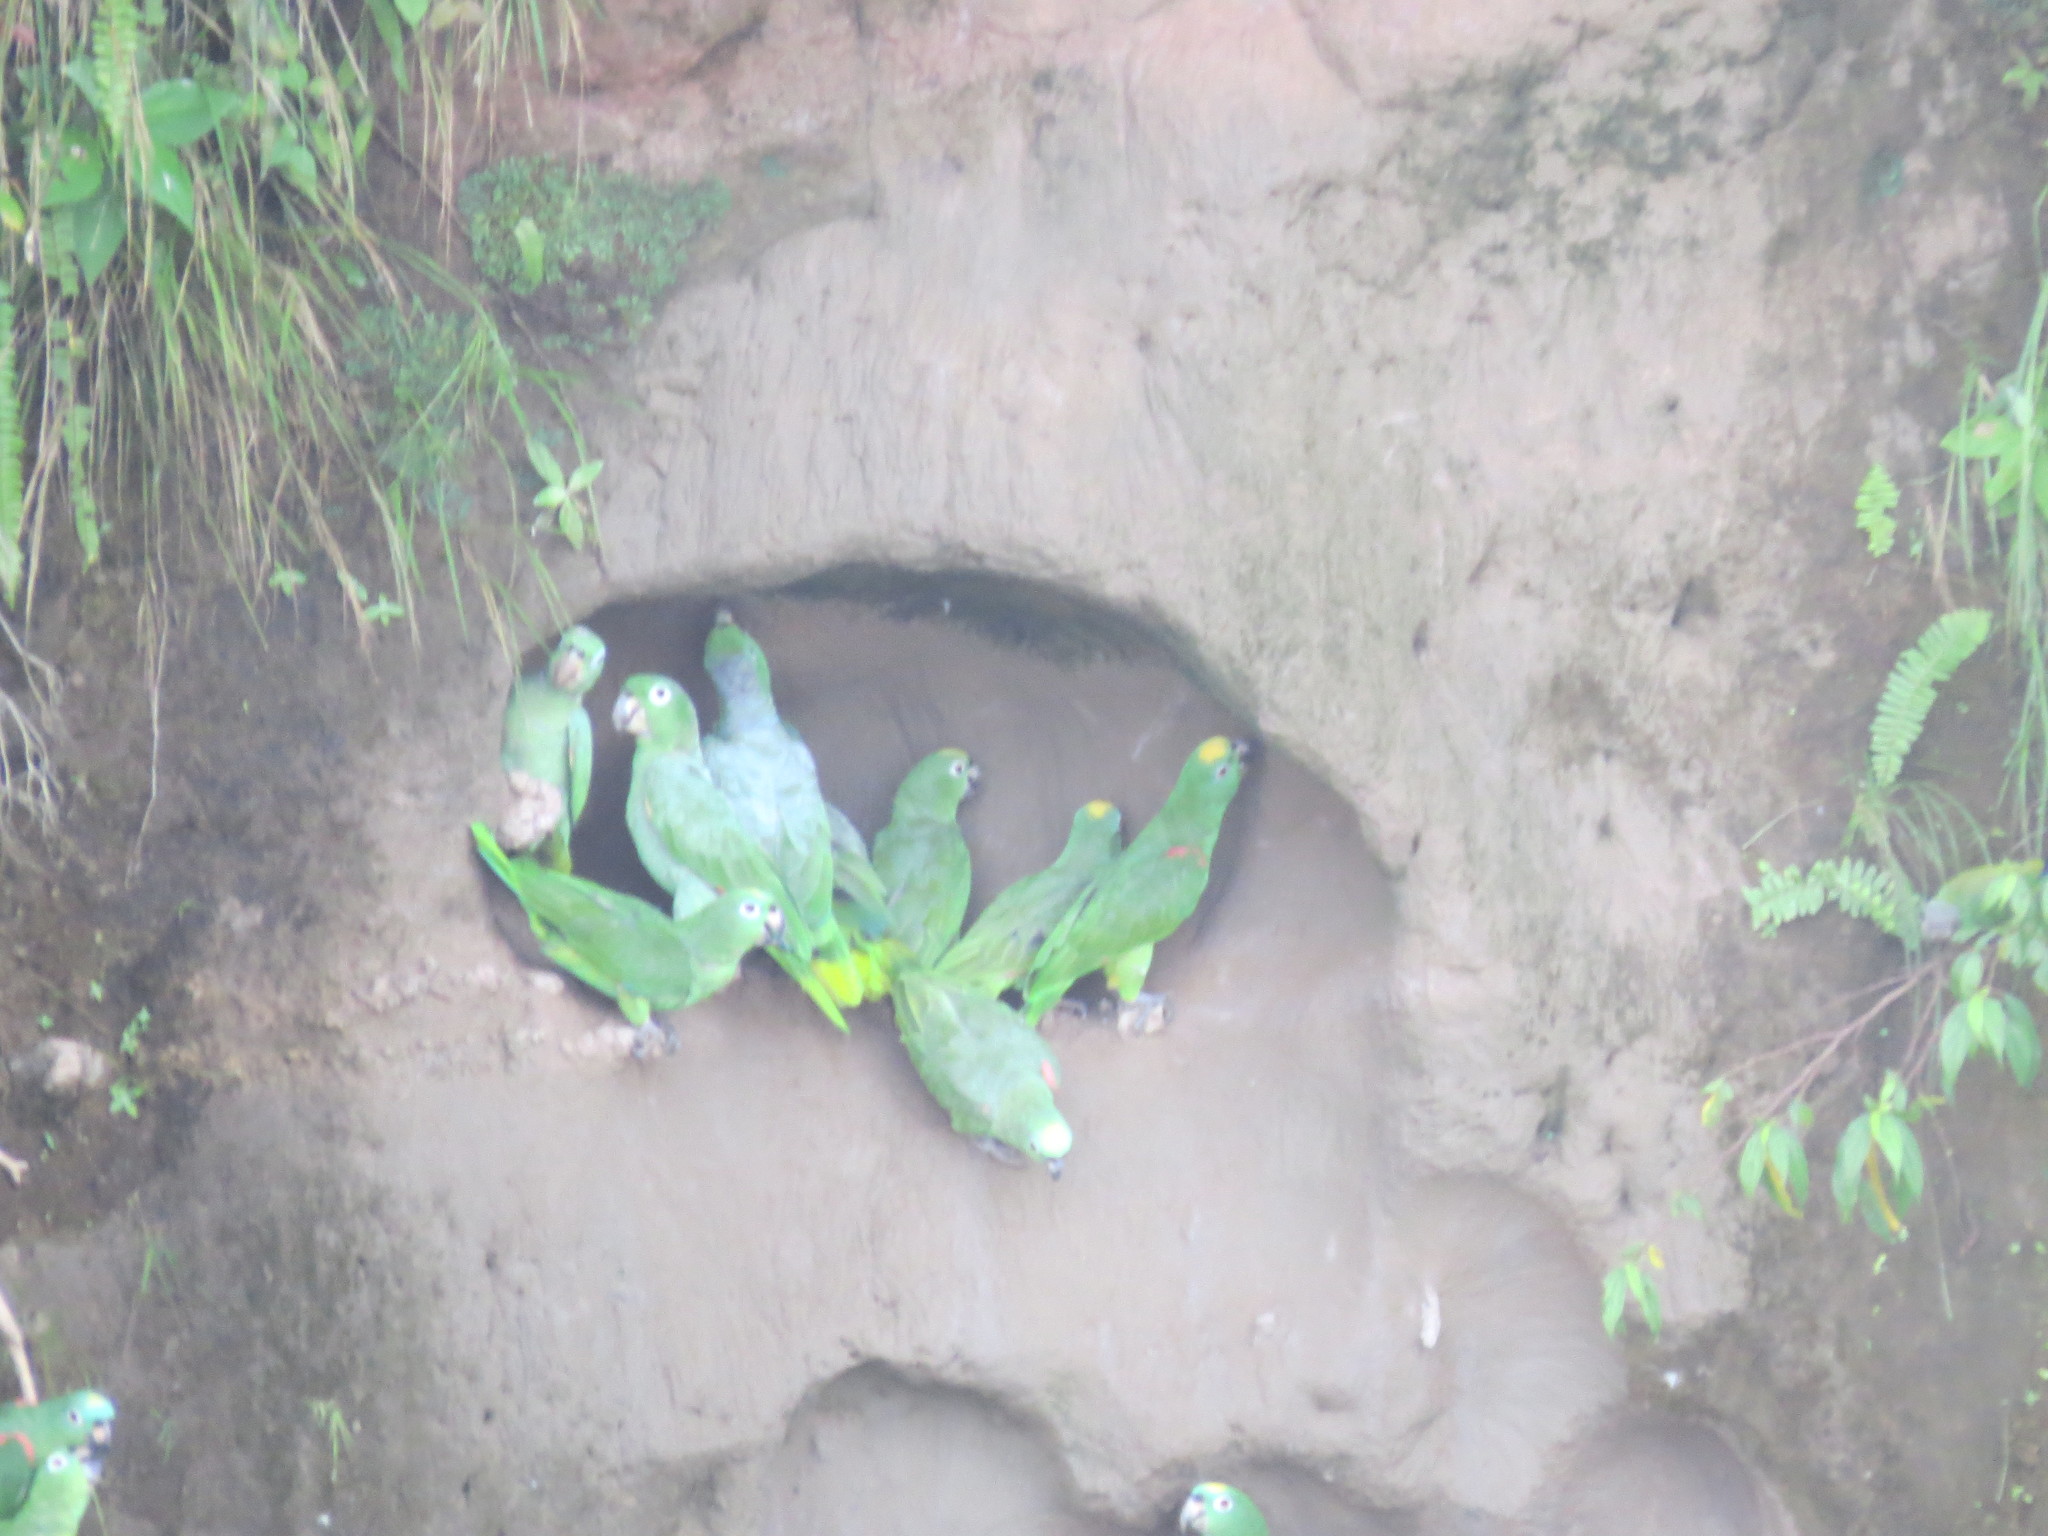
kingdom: Animalia
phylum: Chordata
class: Aves
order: Psittaciformes
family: Psittacidae
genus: Amazona
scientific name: Amazona ochrocephala
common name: Yellow-crowned amazon
